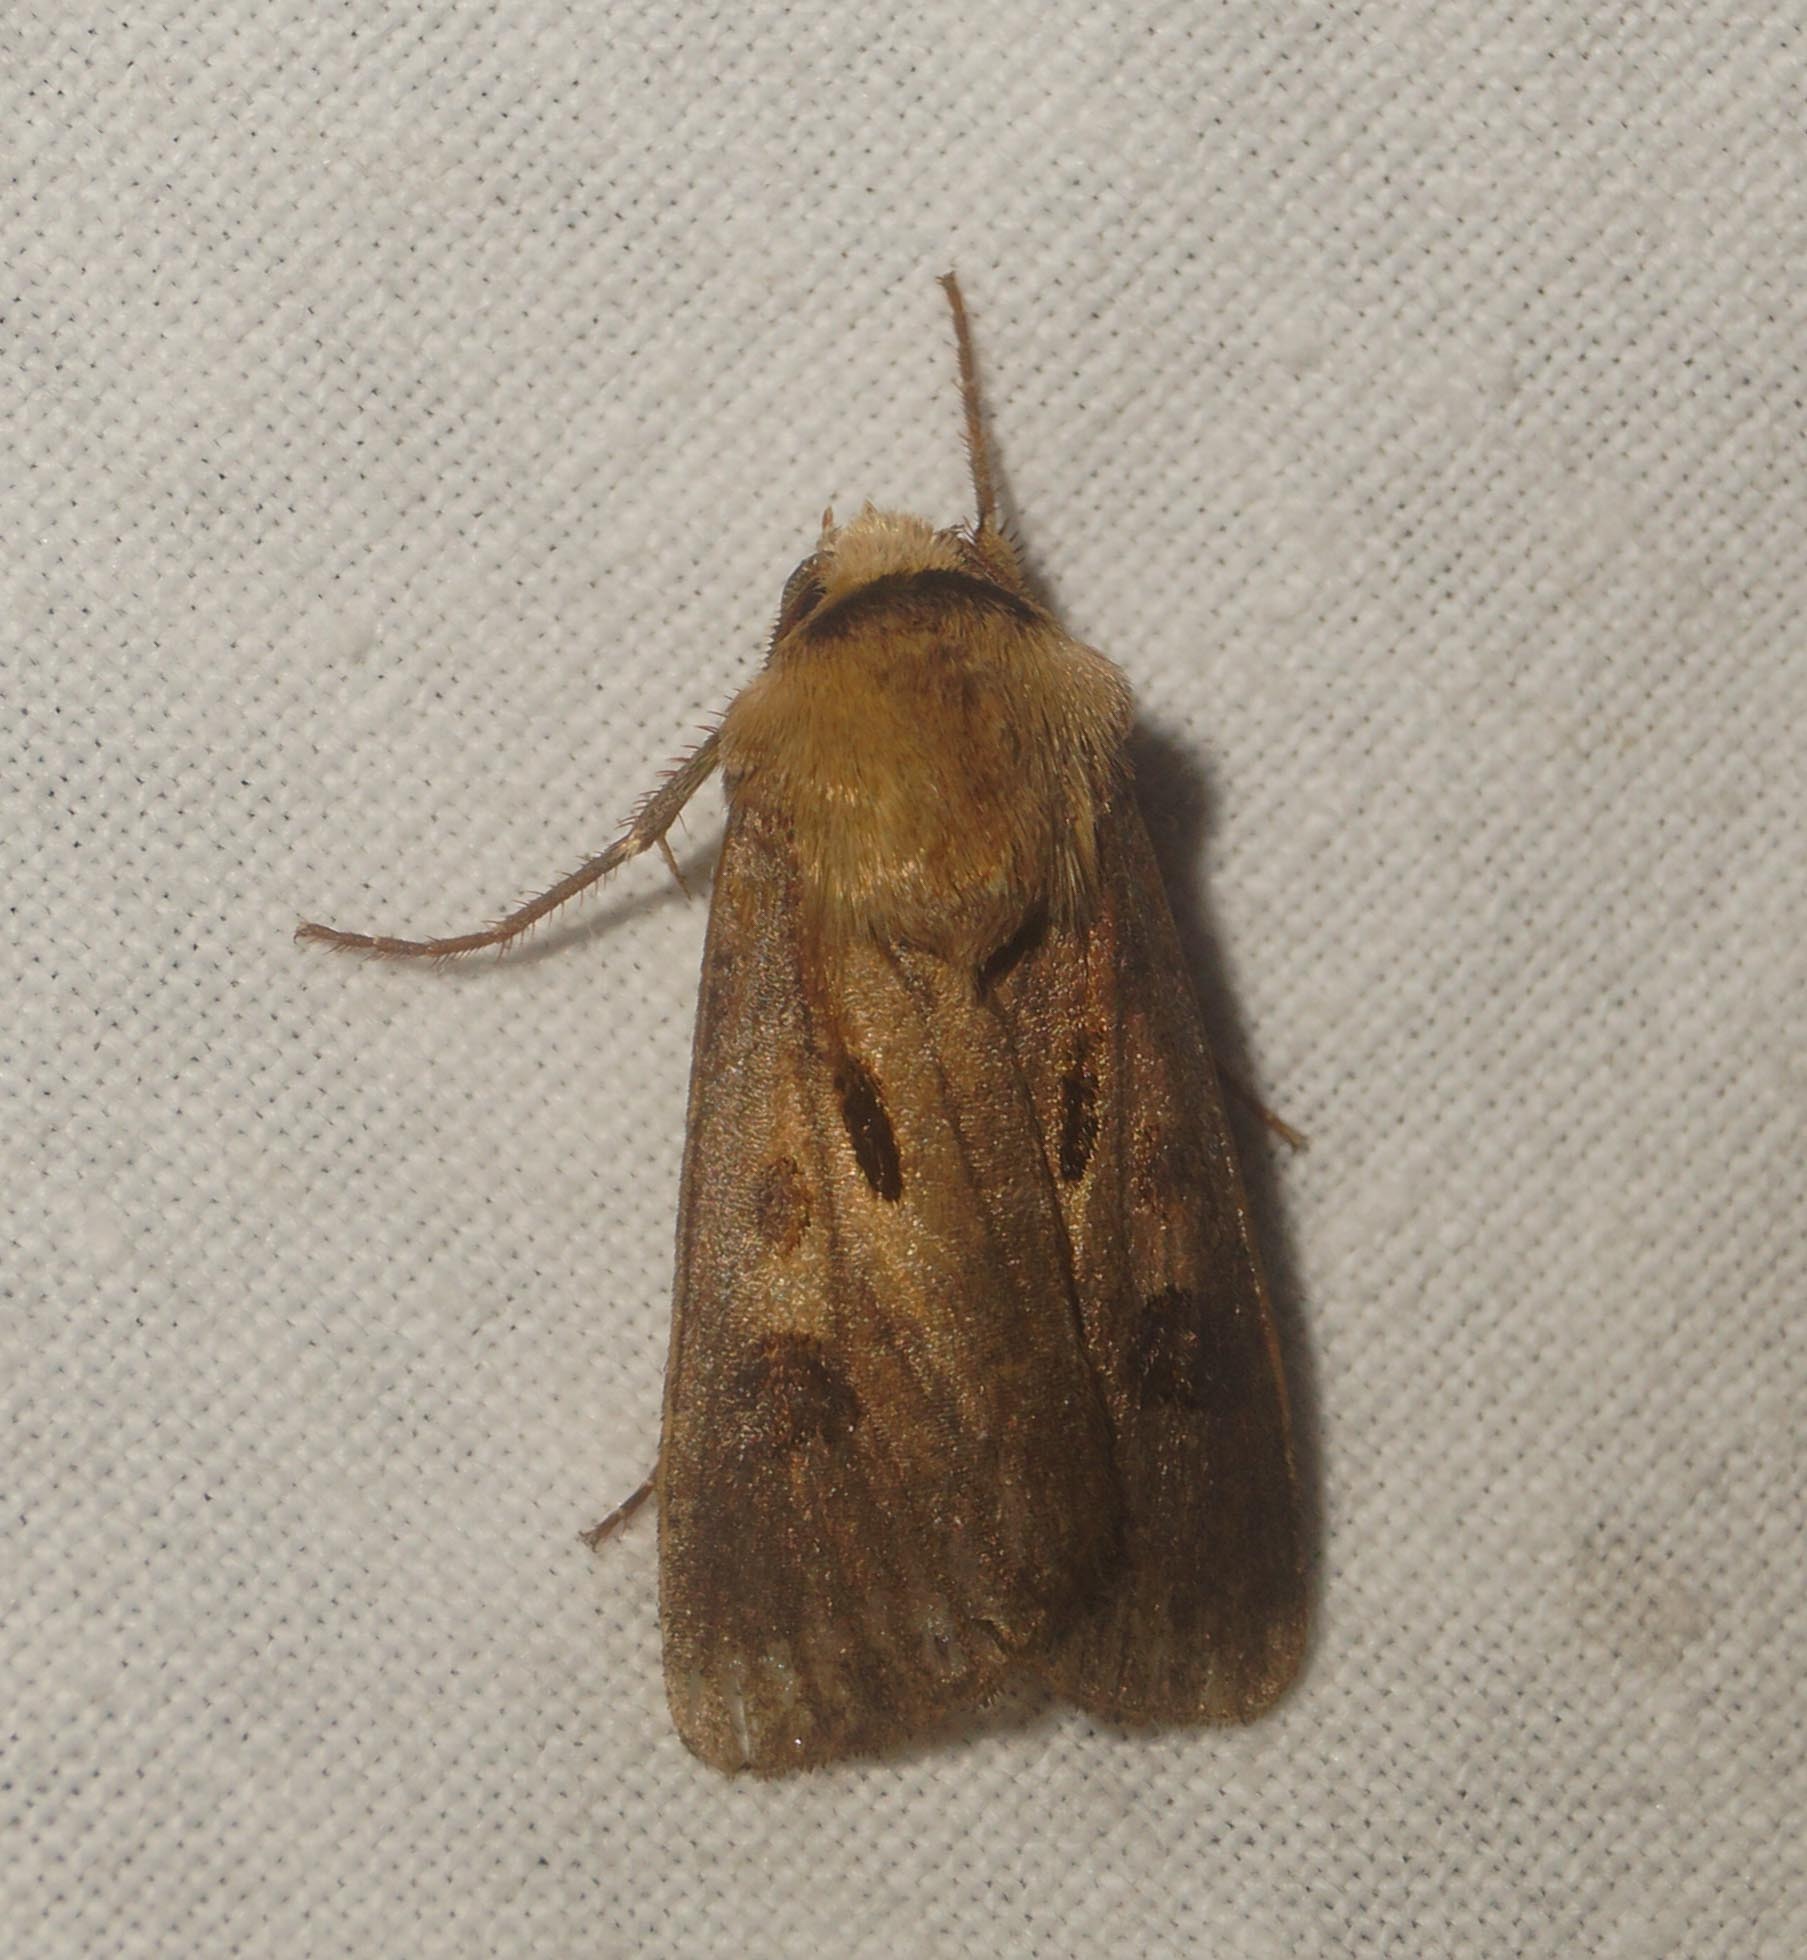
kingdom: Animalia
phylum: Arthropoda
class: Insecta
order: Lepidoptera
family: Noctuidae
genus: Agrotis
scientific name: Agrotis exclamationis
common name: Heart and dart
